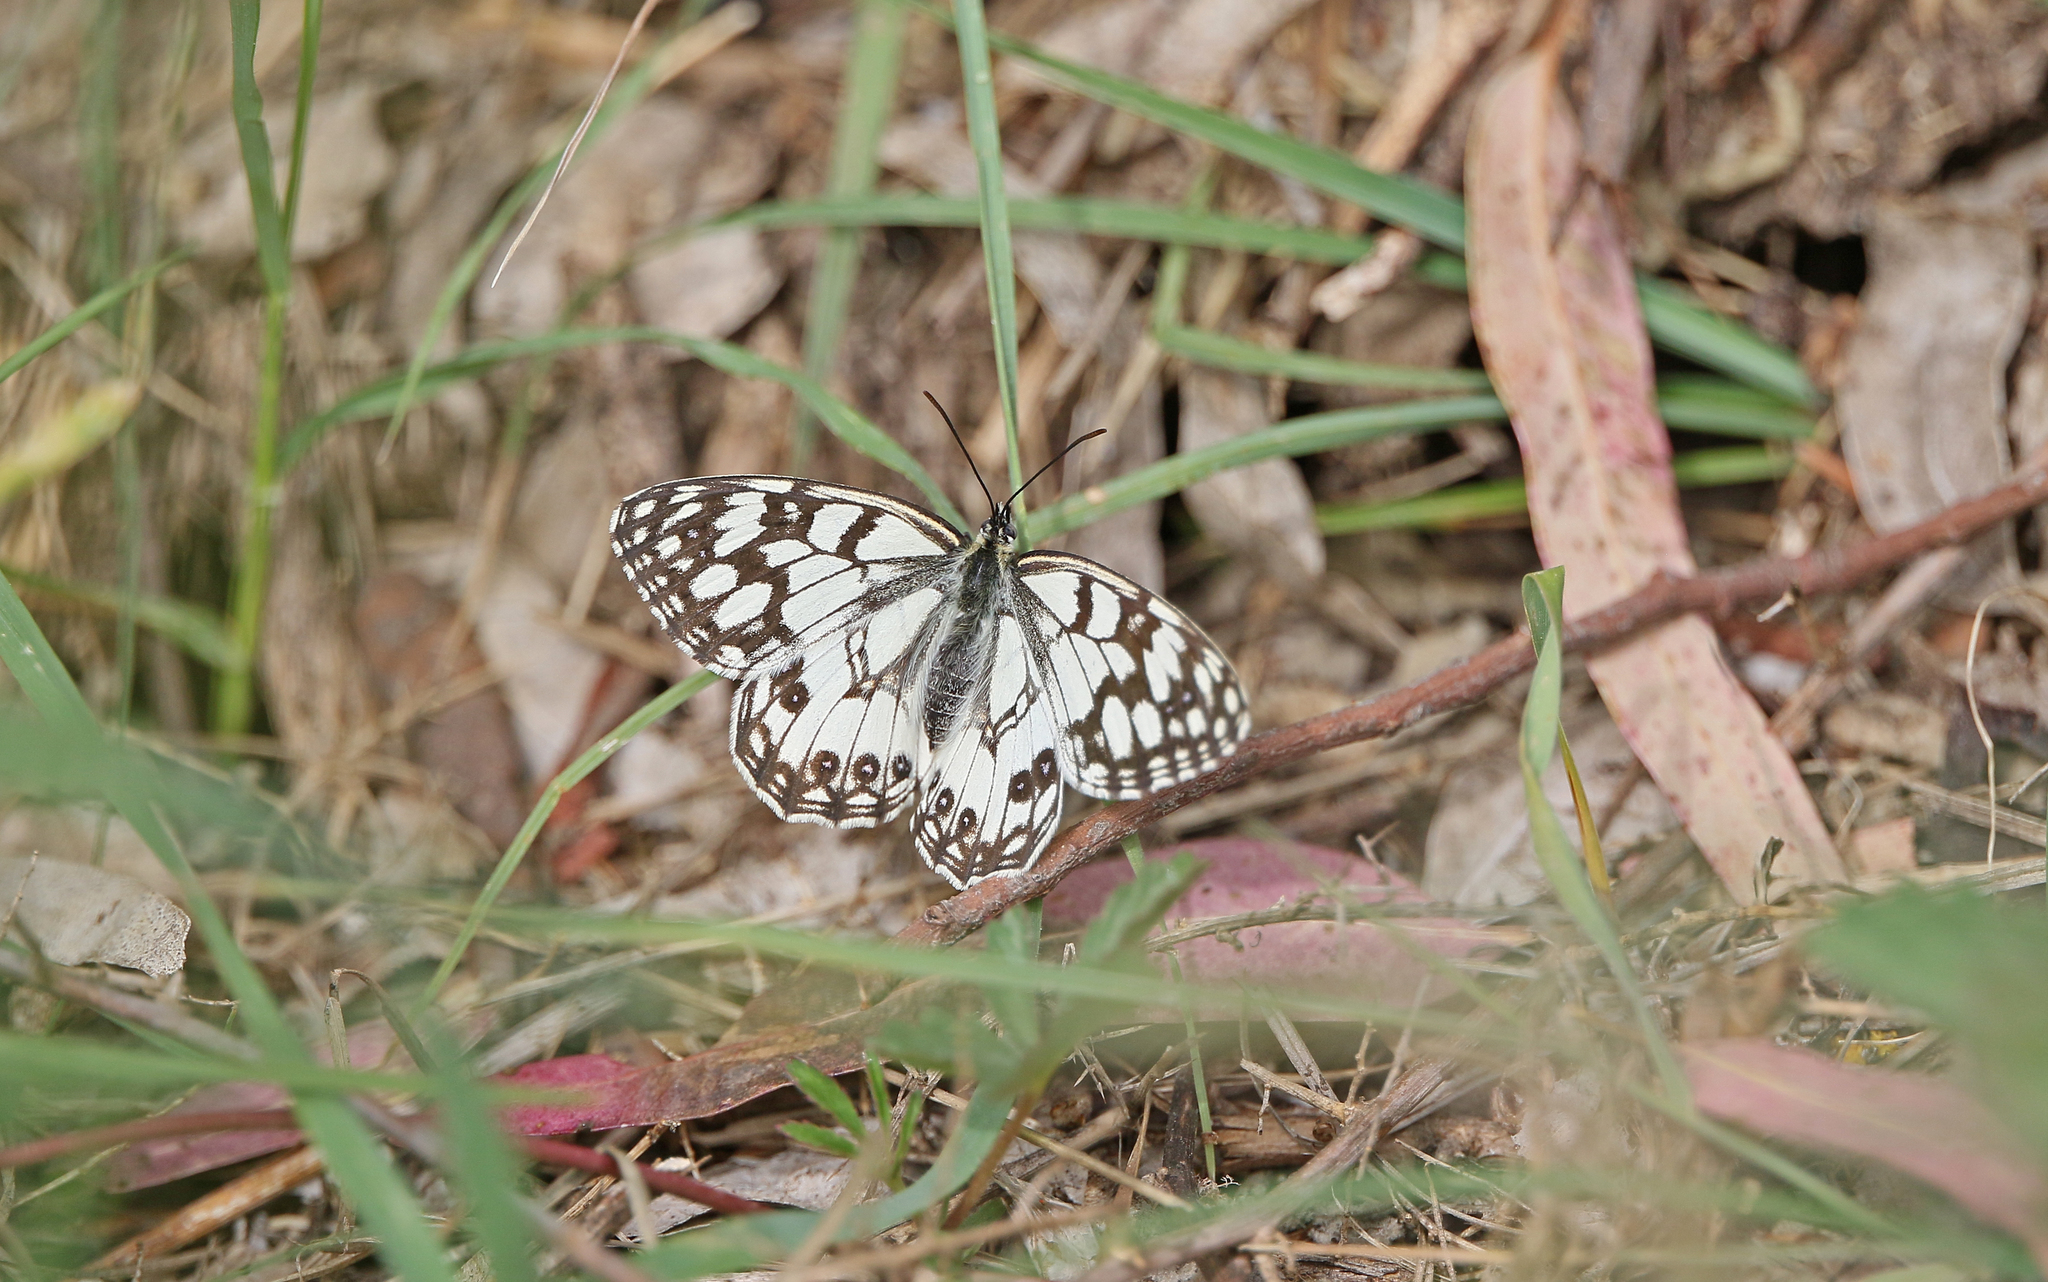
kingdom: Animalia
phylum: Arthropoda
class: Insecta
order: Lepidoptera
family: Nymphalidae
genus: Melanargia
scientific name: Melanargia ines
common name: Spanish marbled white
